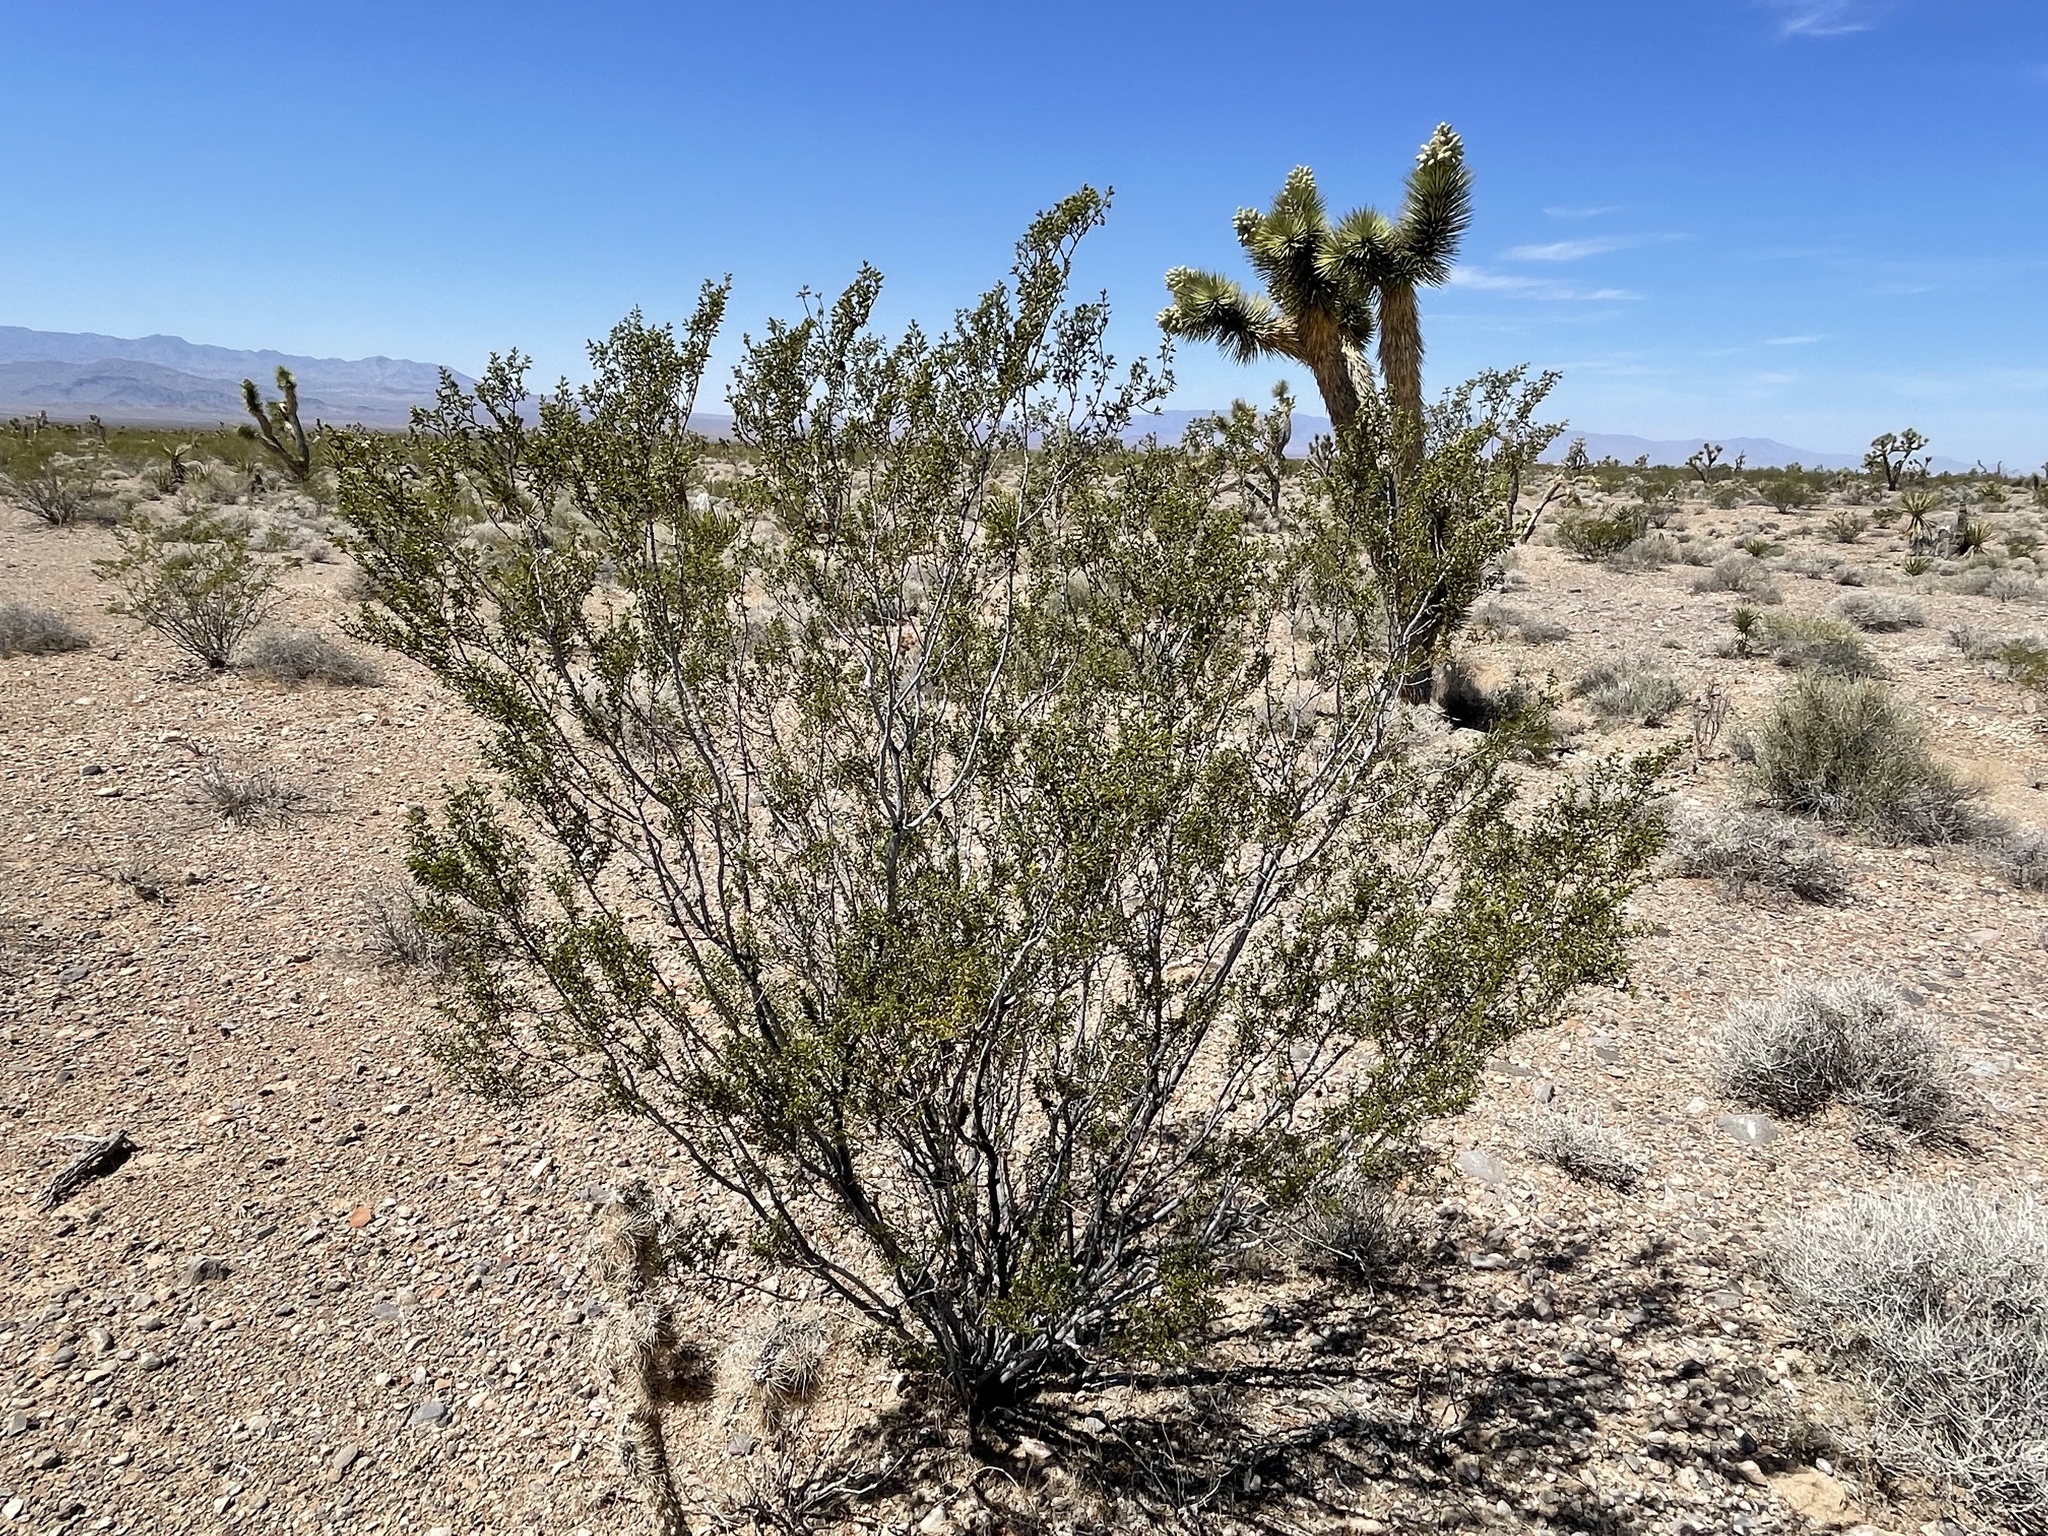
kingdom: Plantae
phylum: Tracheophyta
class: Magnoliopsida
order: Zygophyllales
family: Zygophyllaceae
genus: Larrea
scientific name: Larrea tridentata
